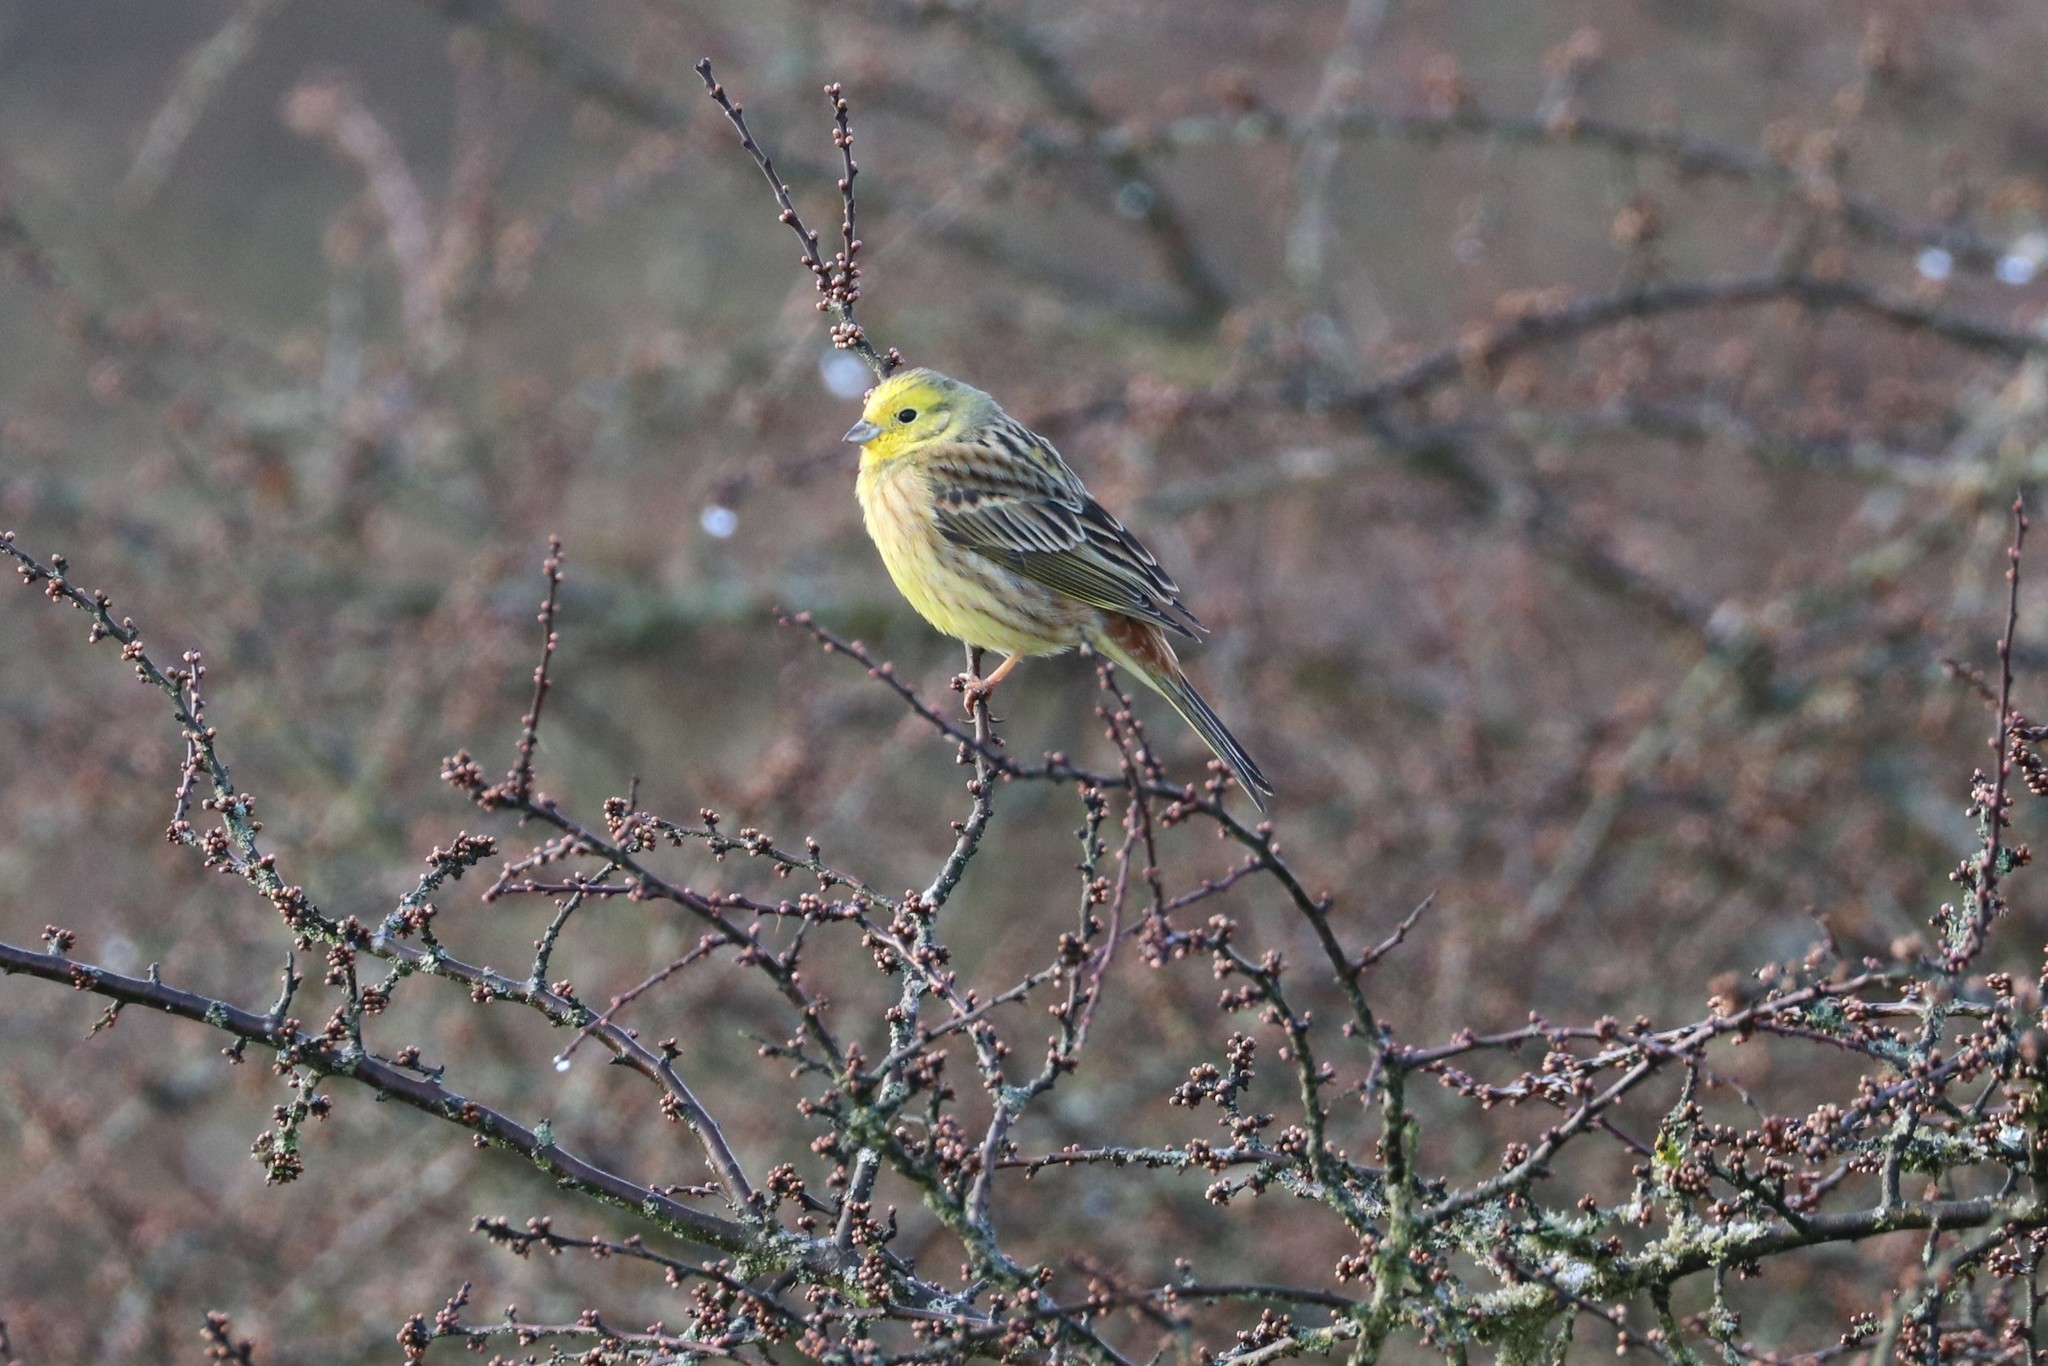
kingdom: Animalia
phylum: Chordata
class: Aves
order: Passeriformes
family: Emberizidae
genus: Emberiza
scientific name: Emberiza citrinella
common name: Yellowhammer
